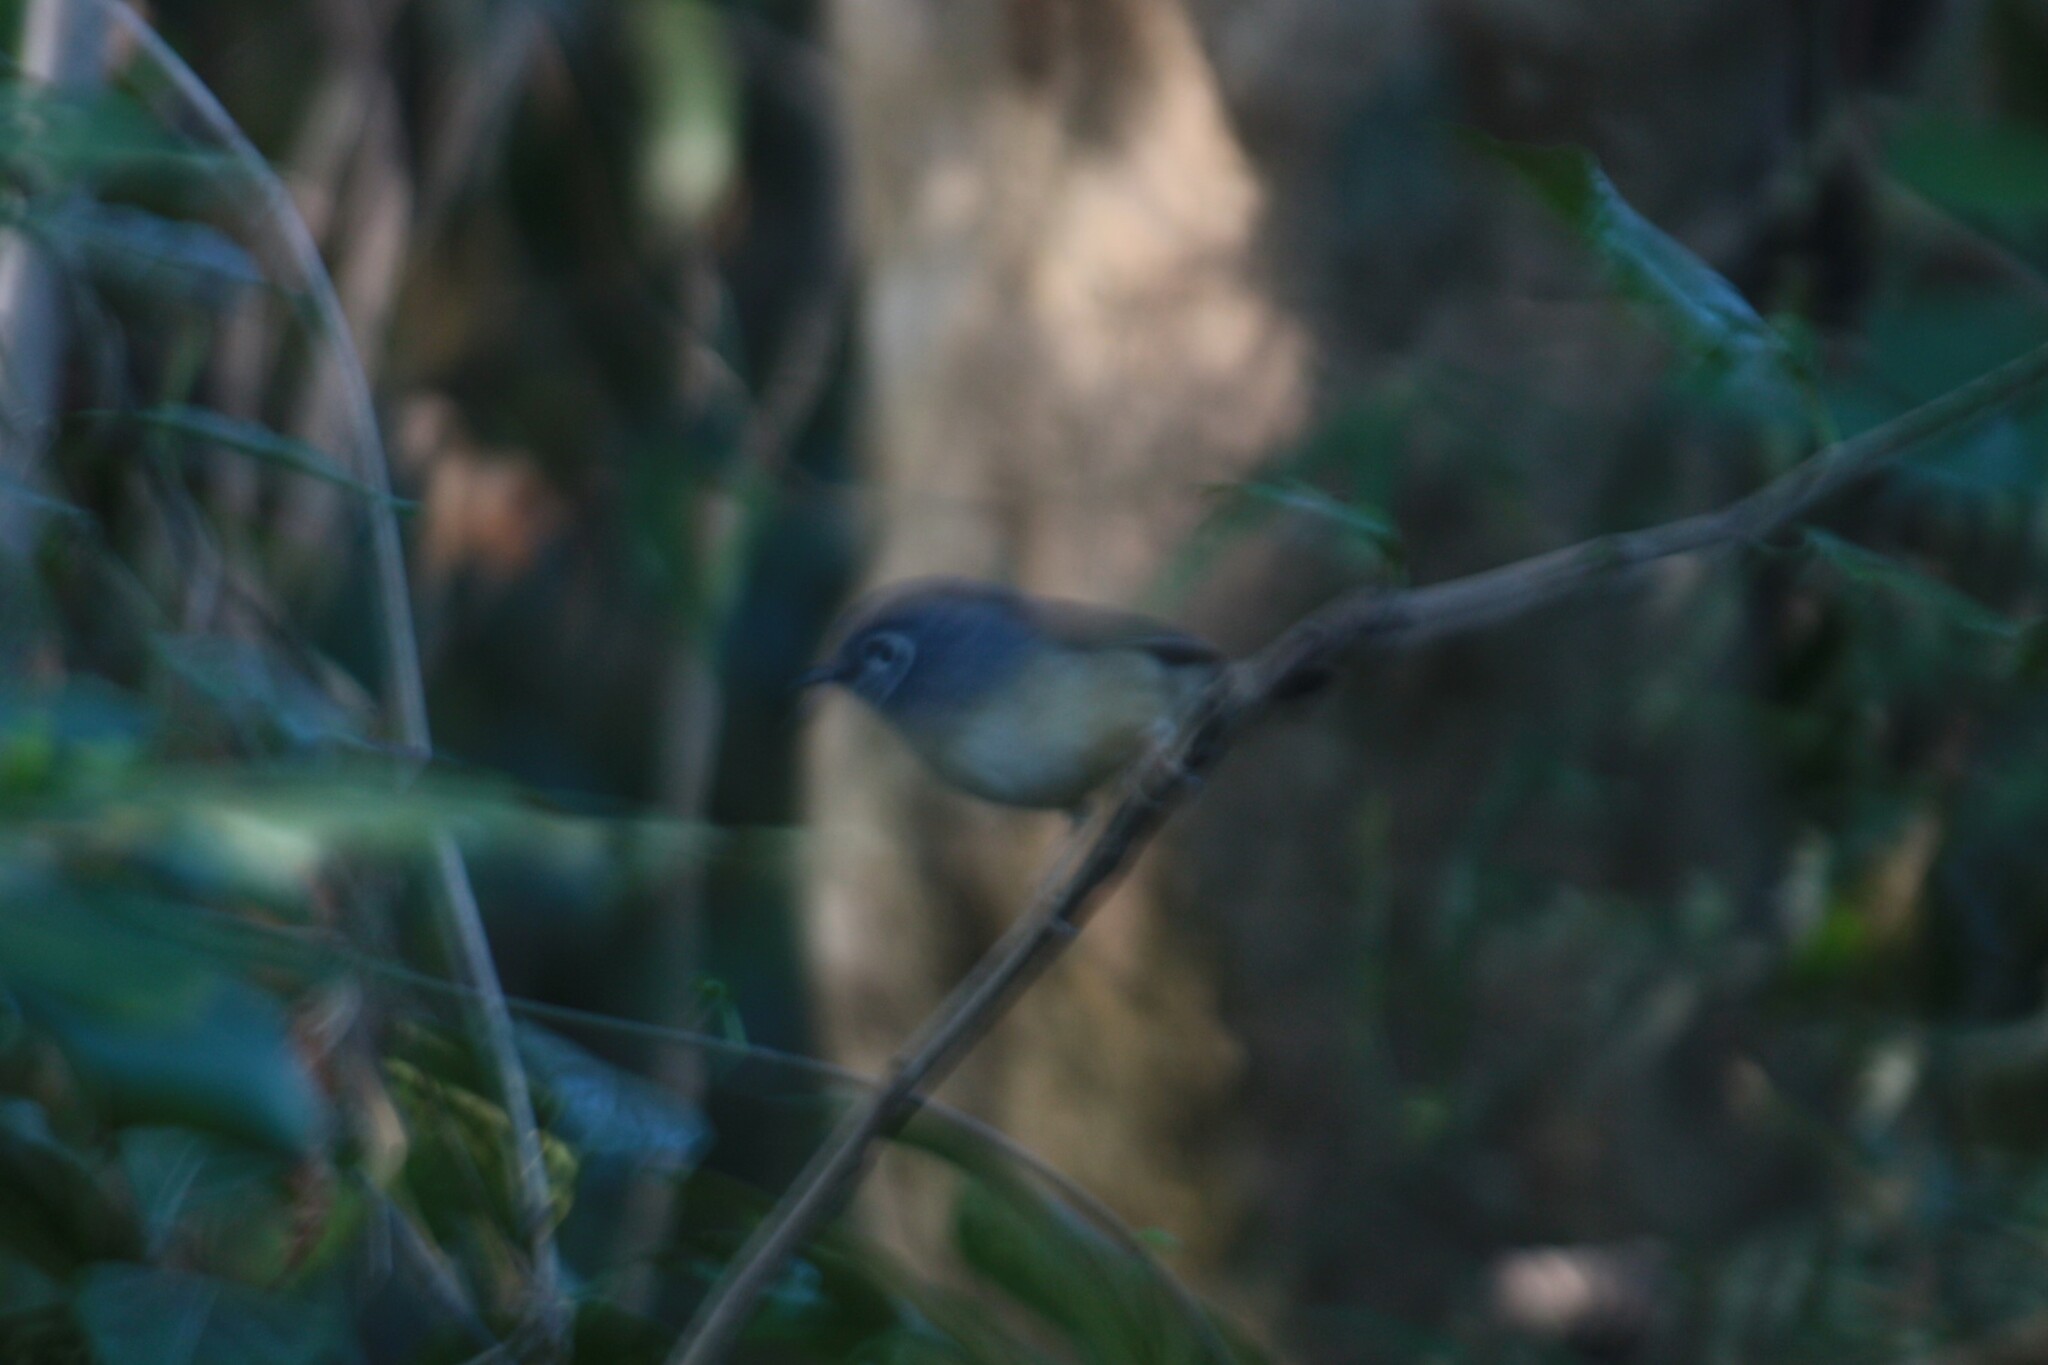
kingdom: Animalia
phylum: Chordata
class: Aves
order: Passeriformes
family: Pellorneidae
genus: Alcippe
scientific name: Alcippe morrisonia
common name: Grey-cheeked fulvetta
